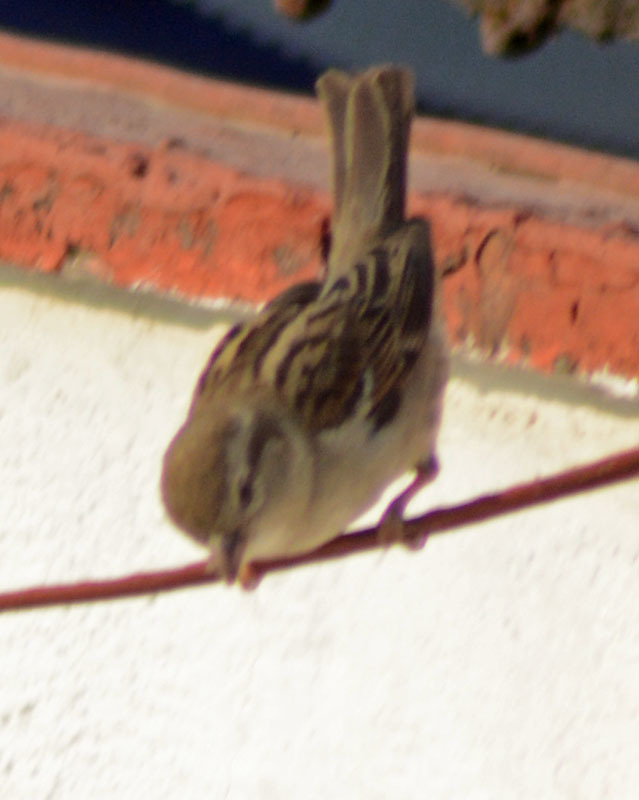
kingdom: Animalia
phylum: Chordata
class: Aves
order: Passeriformes
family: Passeridae
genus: Passer
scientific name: Passer domesticus
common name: House sparrow
